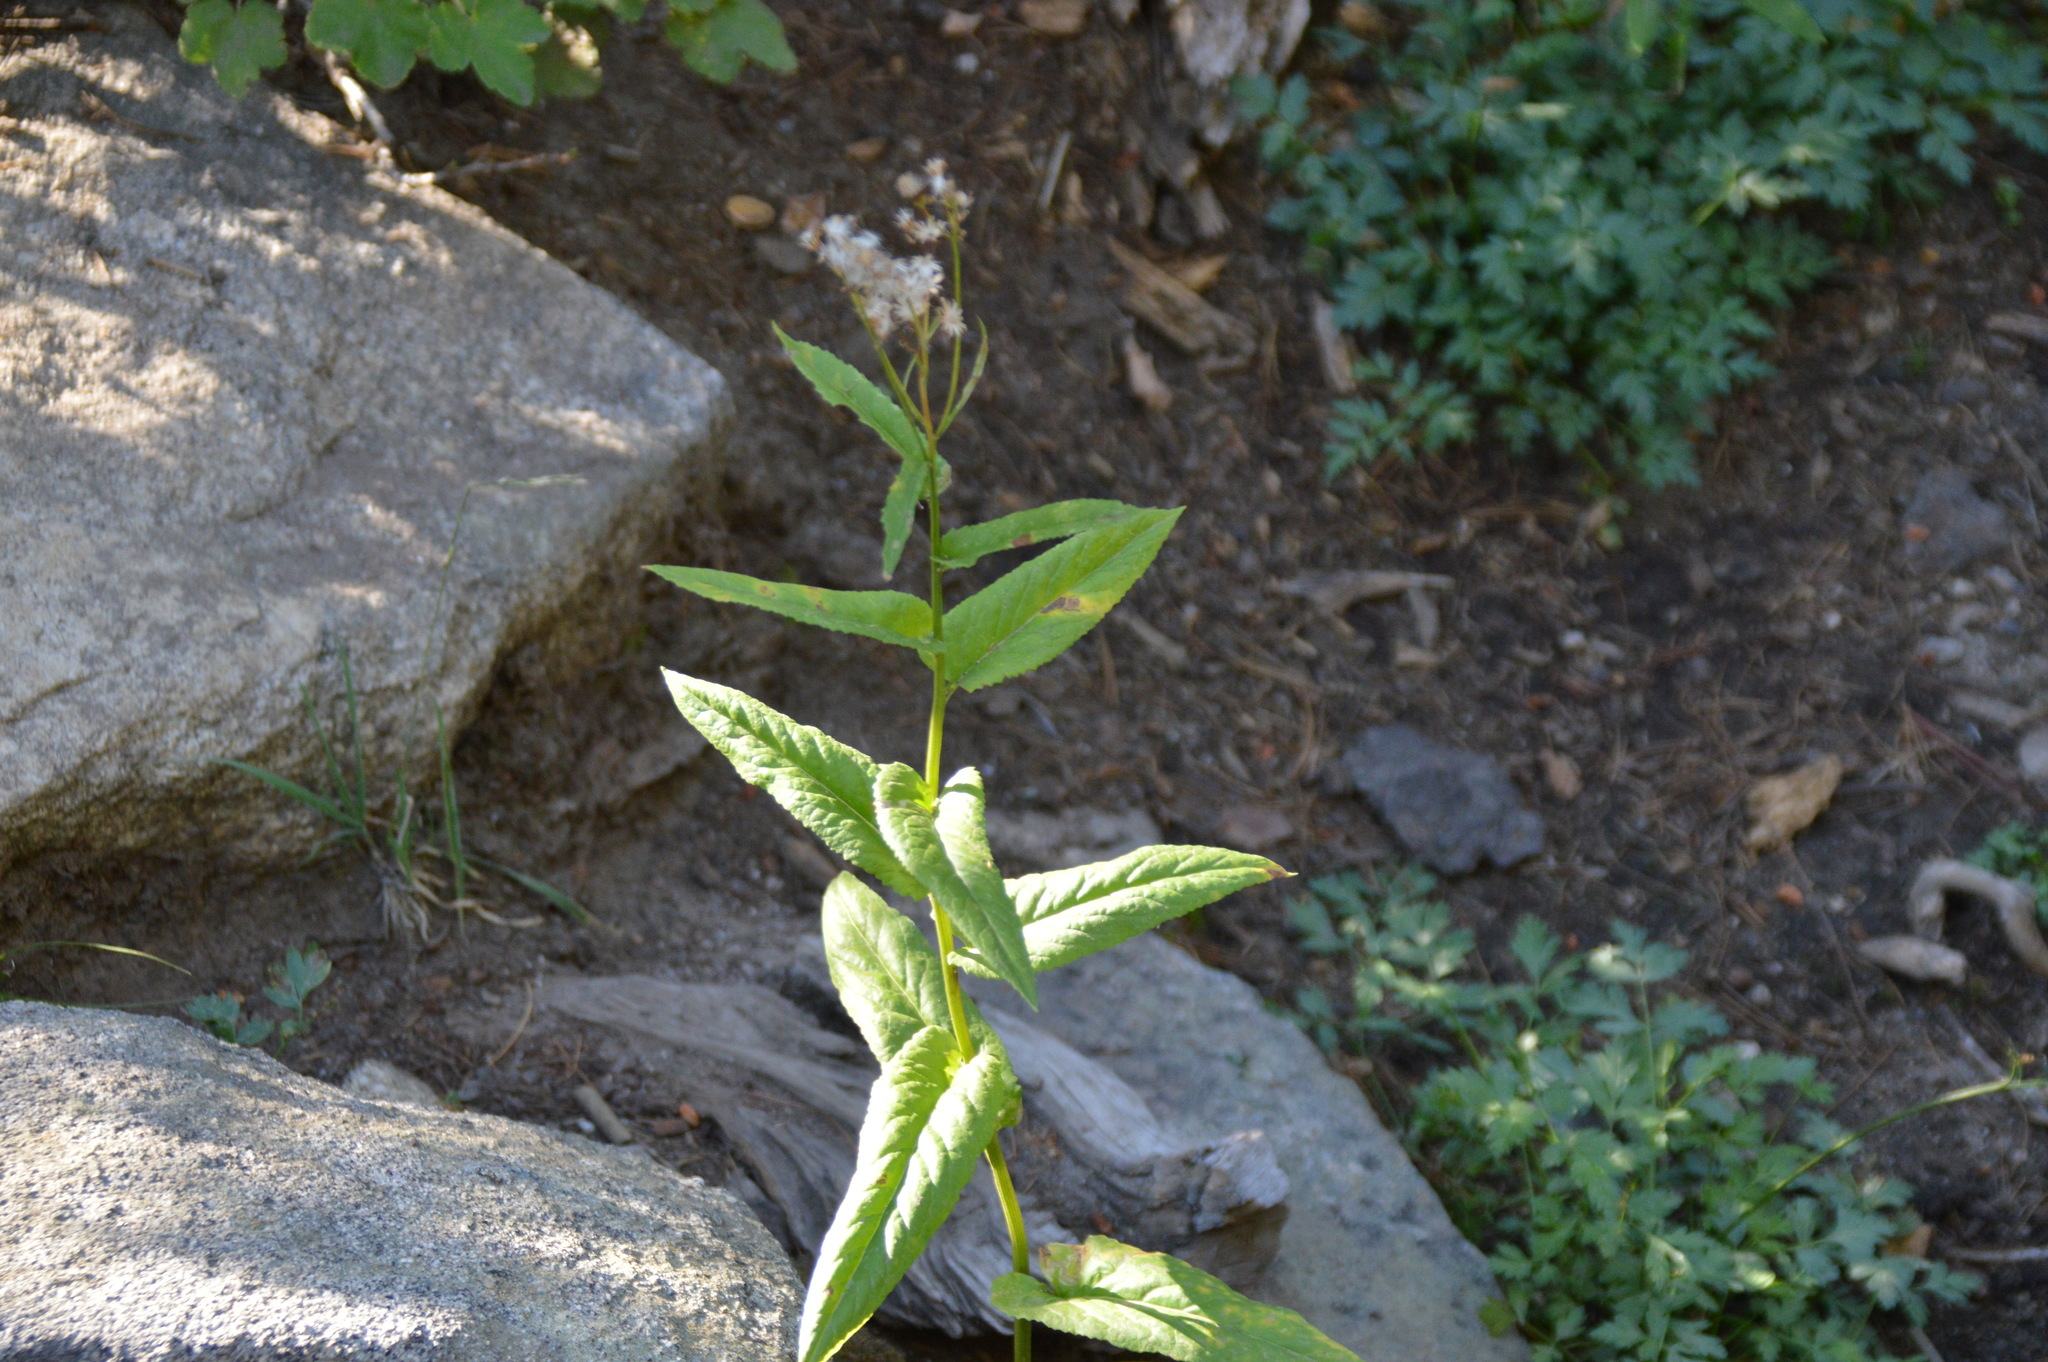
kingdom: Plantae
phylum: Tracheophyta
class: Magnoliopsida
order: Asterales
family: Asteraceae
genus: Senecio
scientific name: Senecio triangularis
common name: Arrowleaf butterweed
